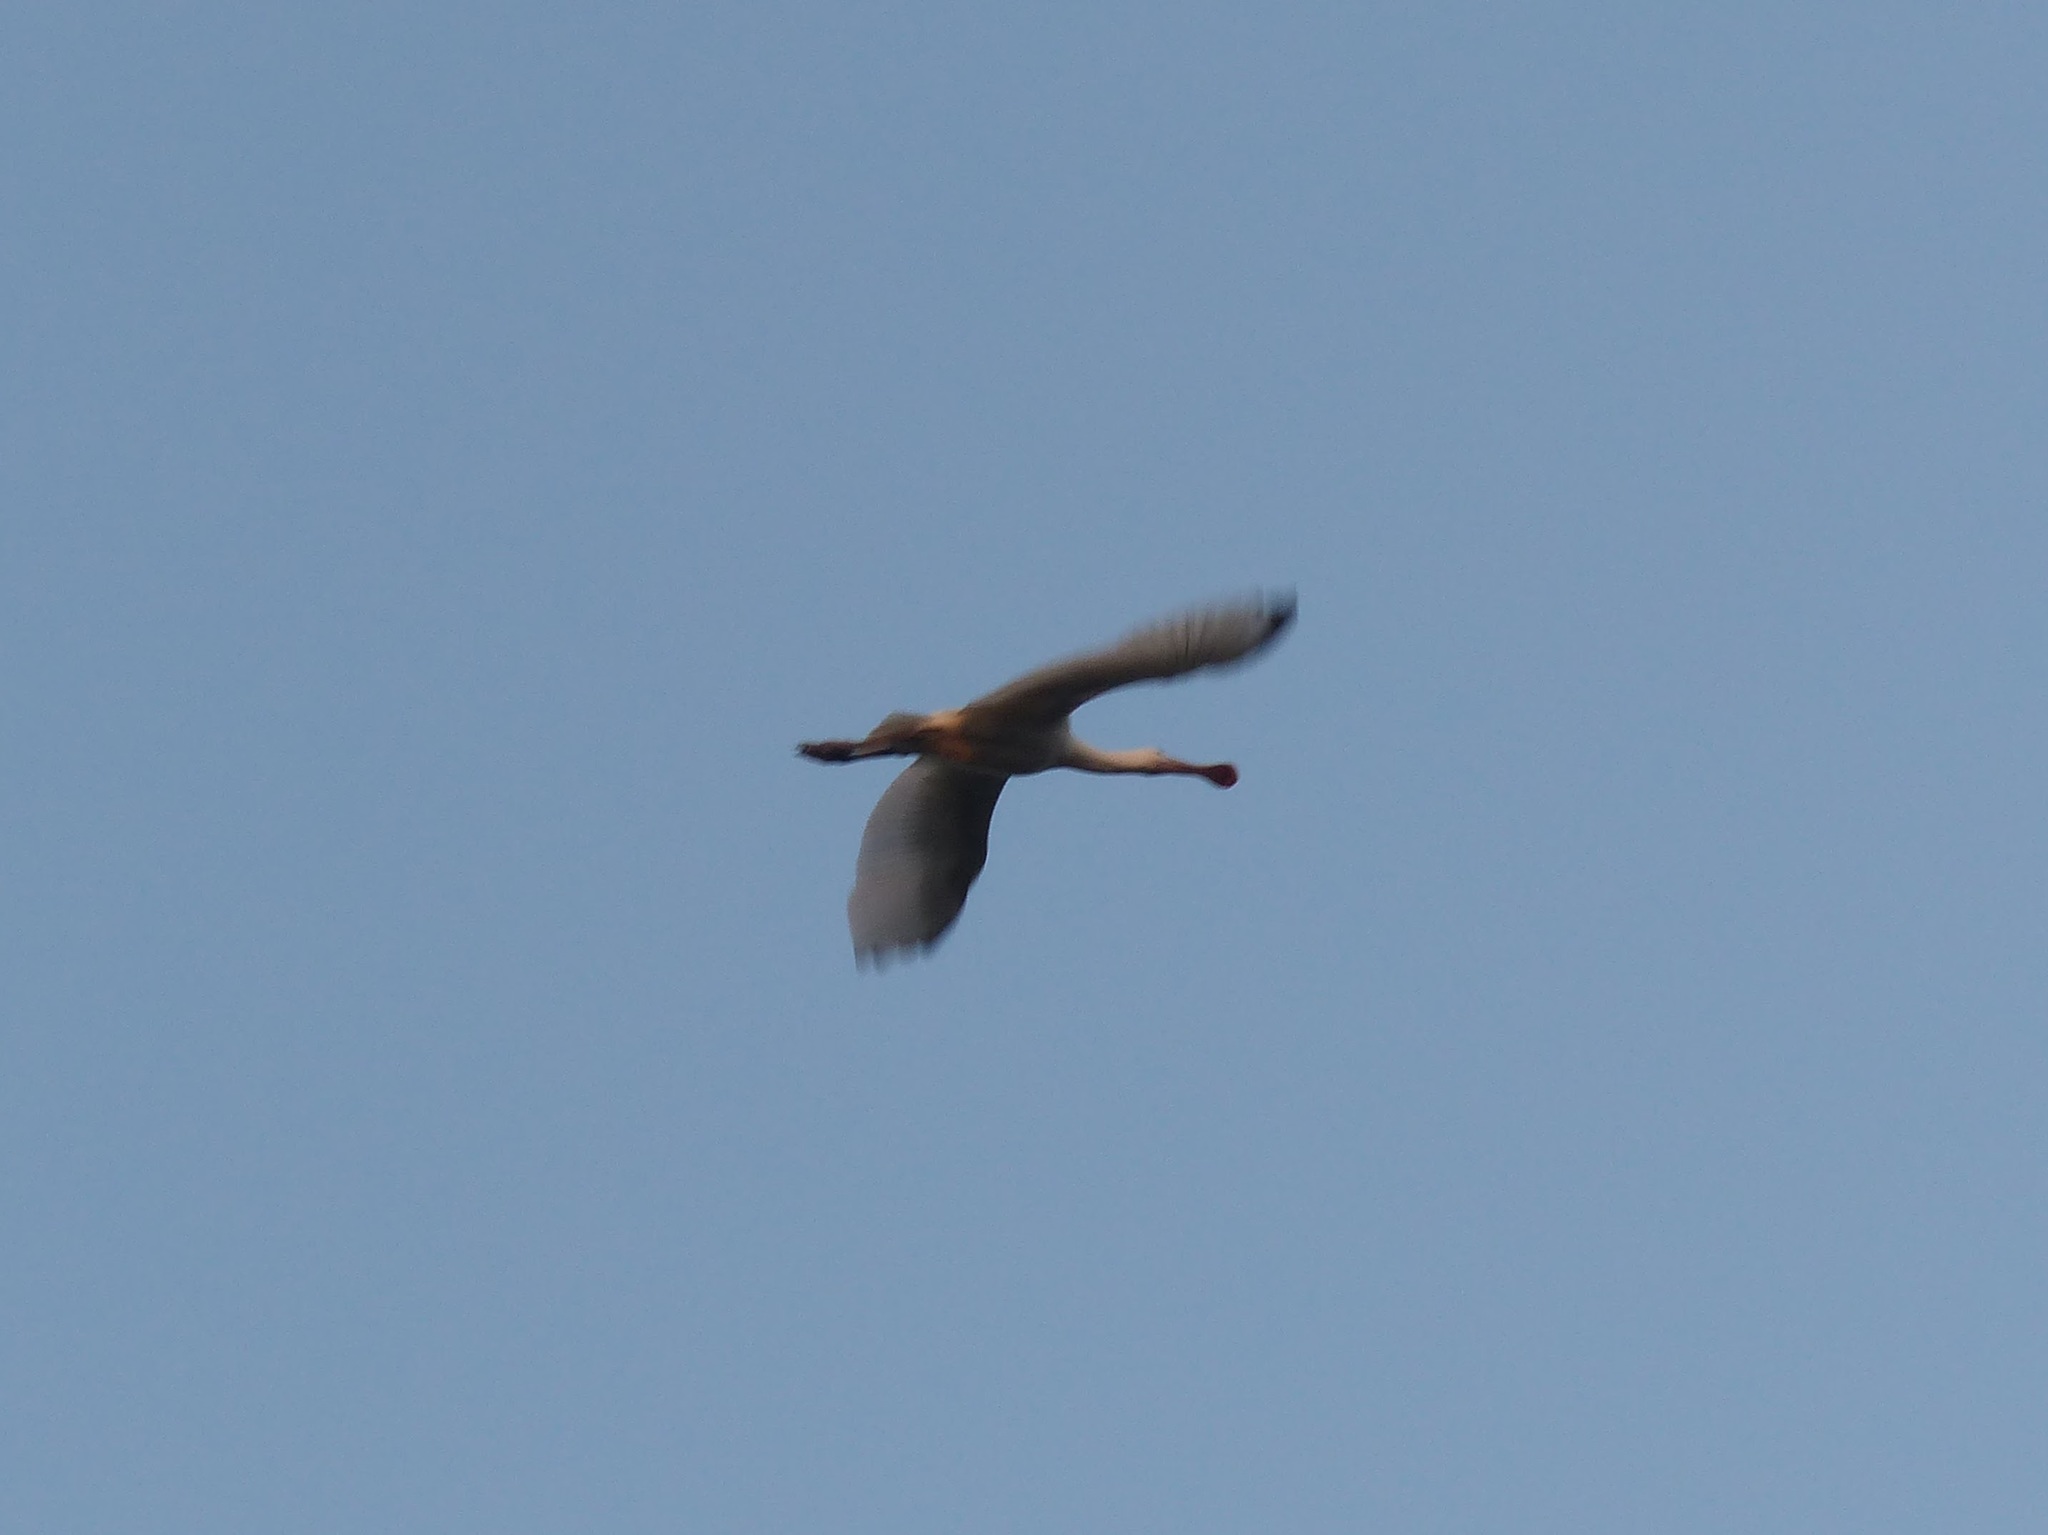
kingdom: Animalia
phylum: Chordata
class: Aves
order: Pelecaniformes
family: Threskiornithidae
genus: Platalea
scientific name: Platalea leucorodia
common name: Eurasian spoonbill
